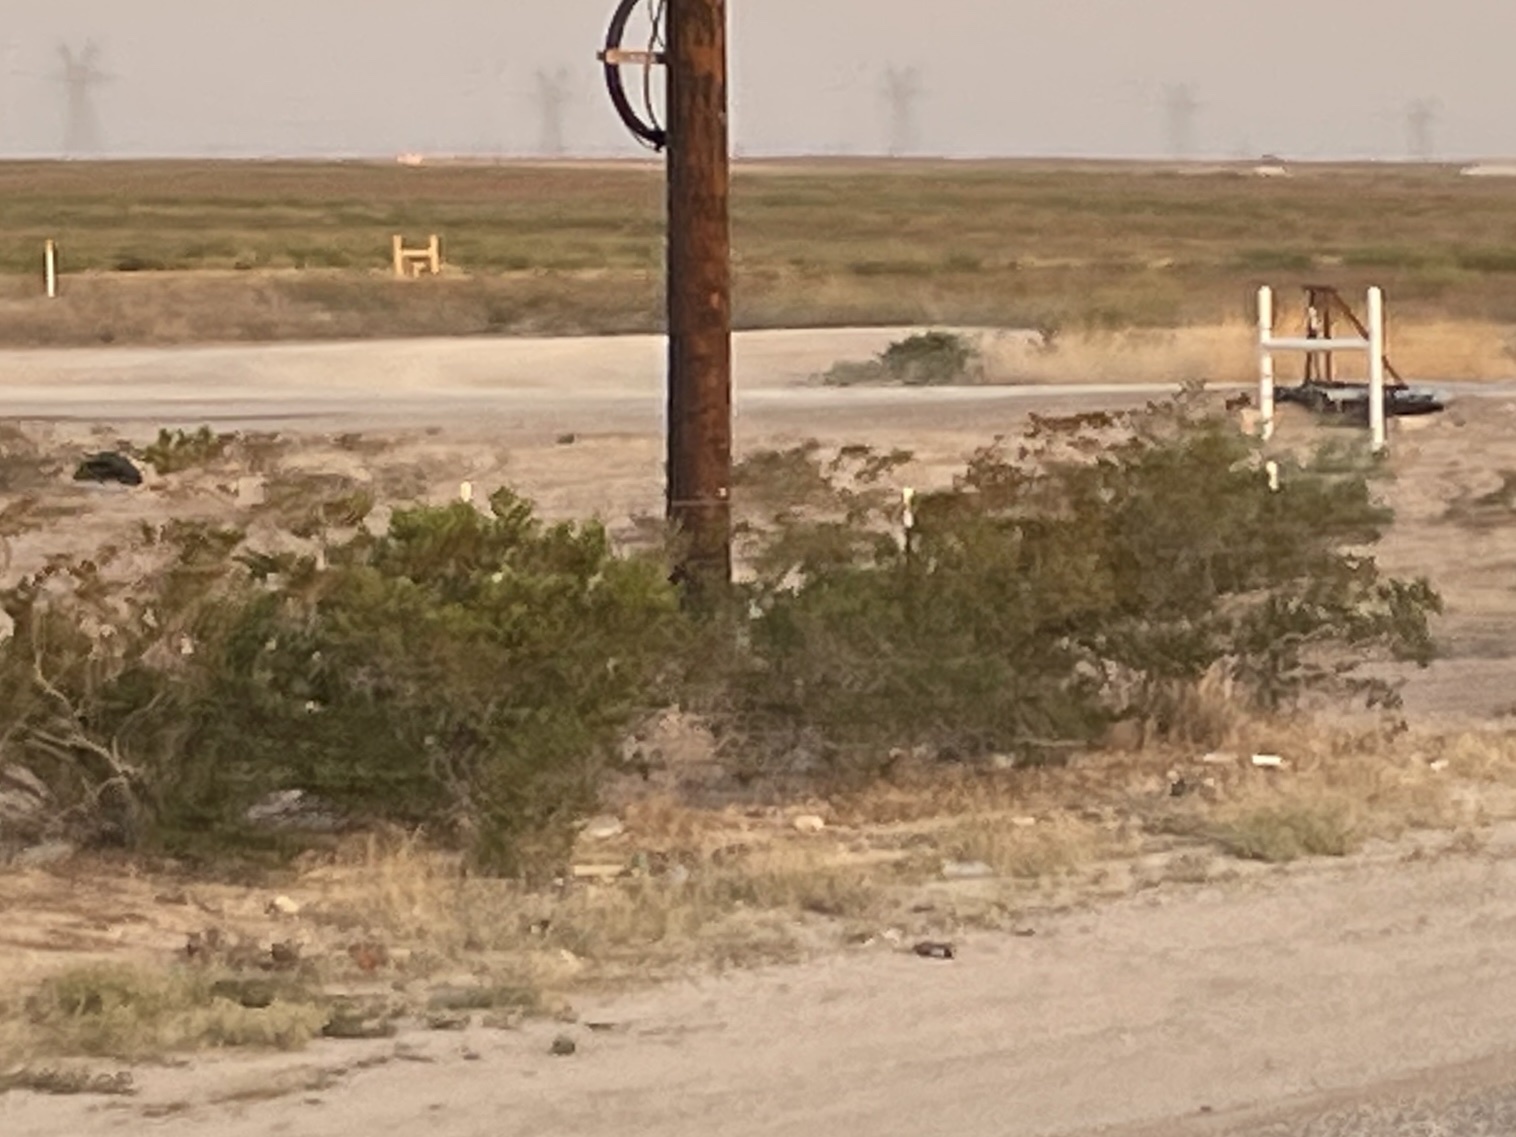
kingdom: Plantae
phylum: Tracheophyta
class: Magnoliopsida
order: Zygophyllales
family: Zygophyllaceae
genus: Larrea
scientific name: Larrea tridentata
